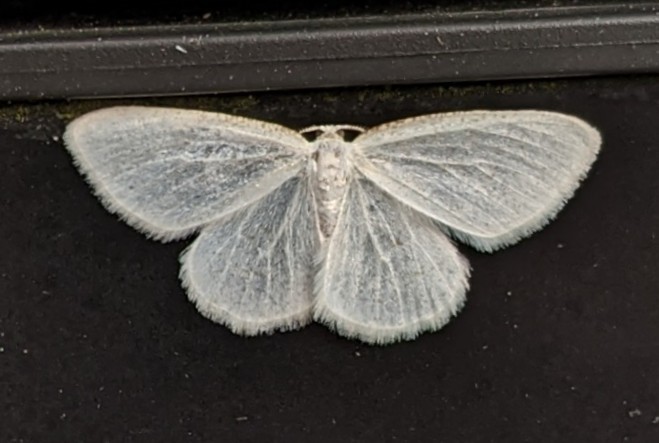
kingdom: Animalia
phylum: Arthropoda
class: Insecta
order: Lepidoptera
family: Geometridae
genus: Protitame
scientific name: Protitame virginalis
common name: Virgin moth
